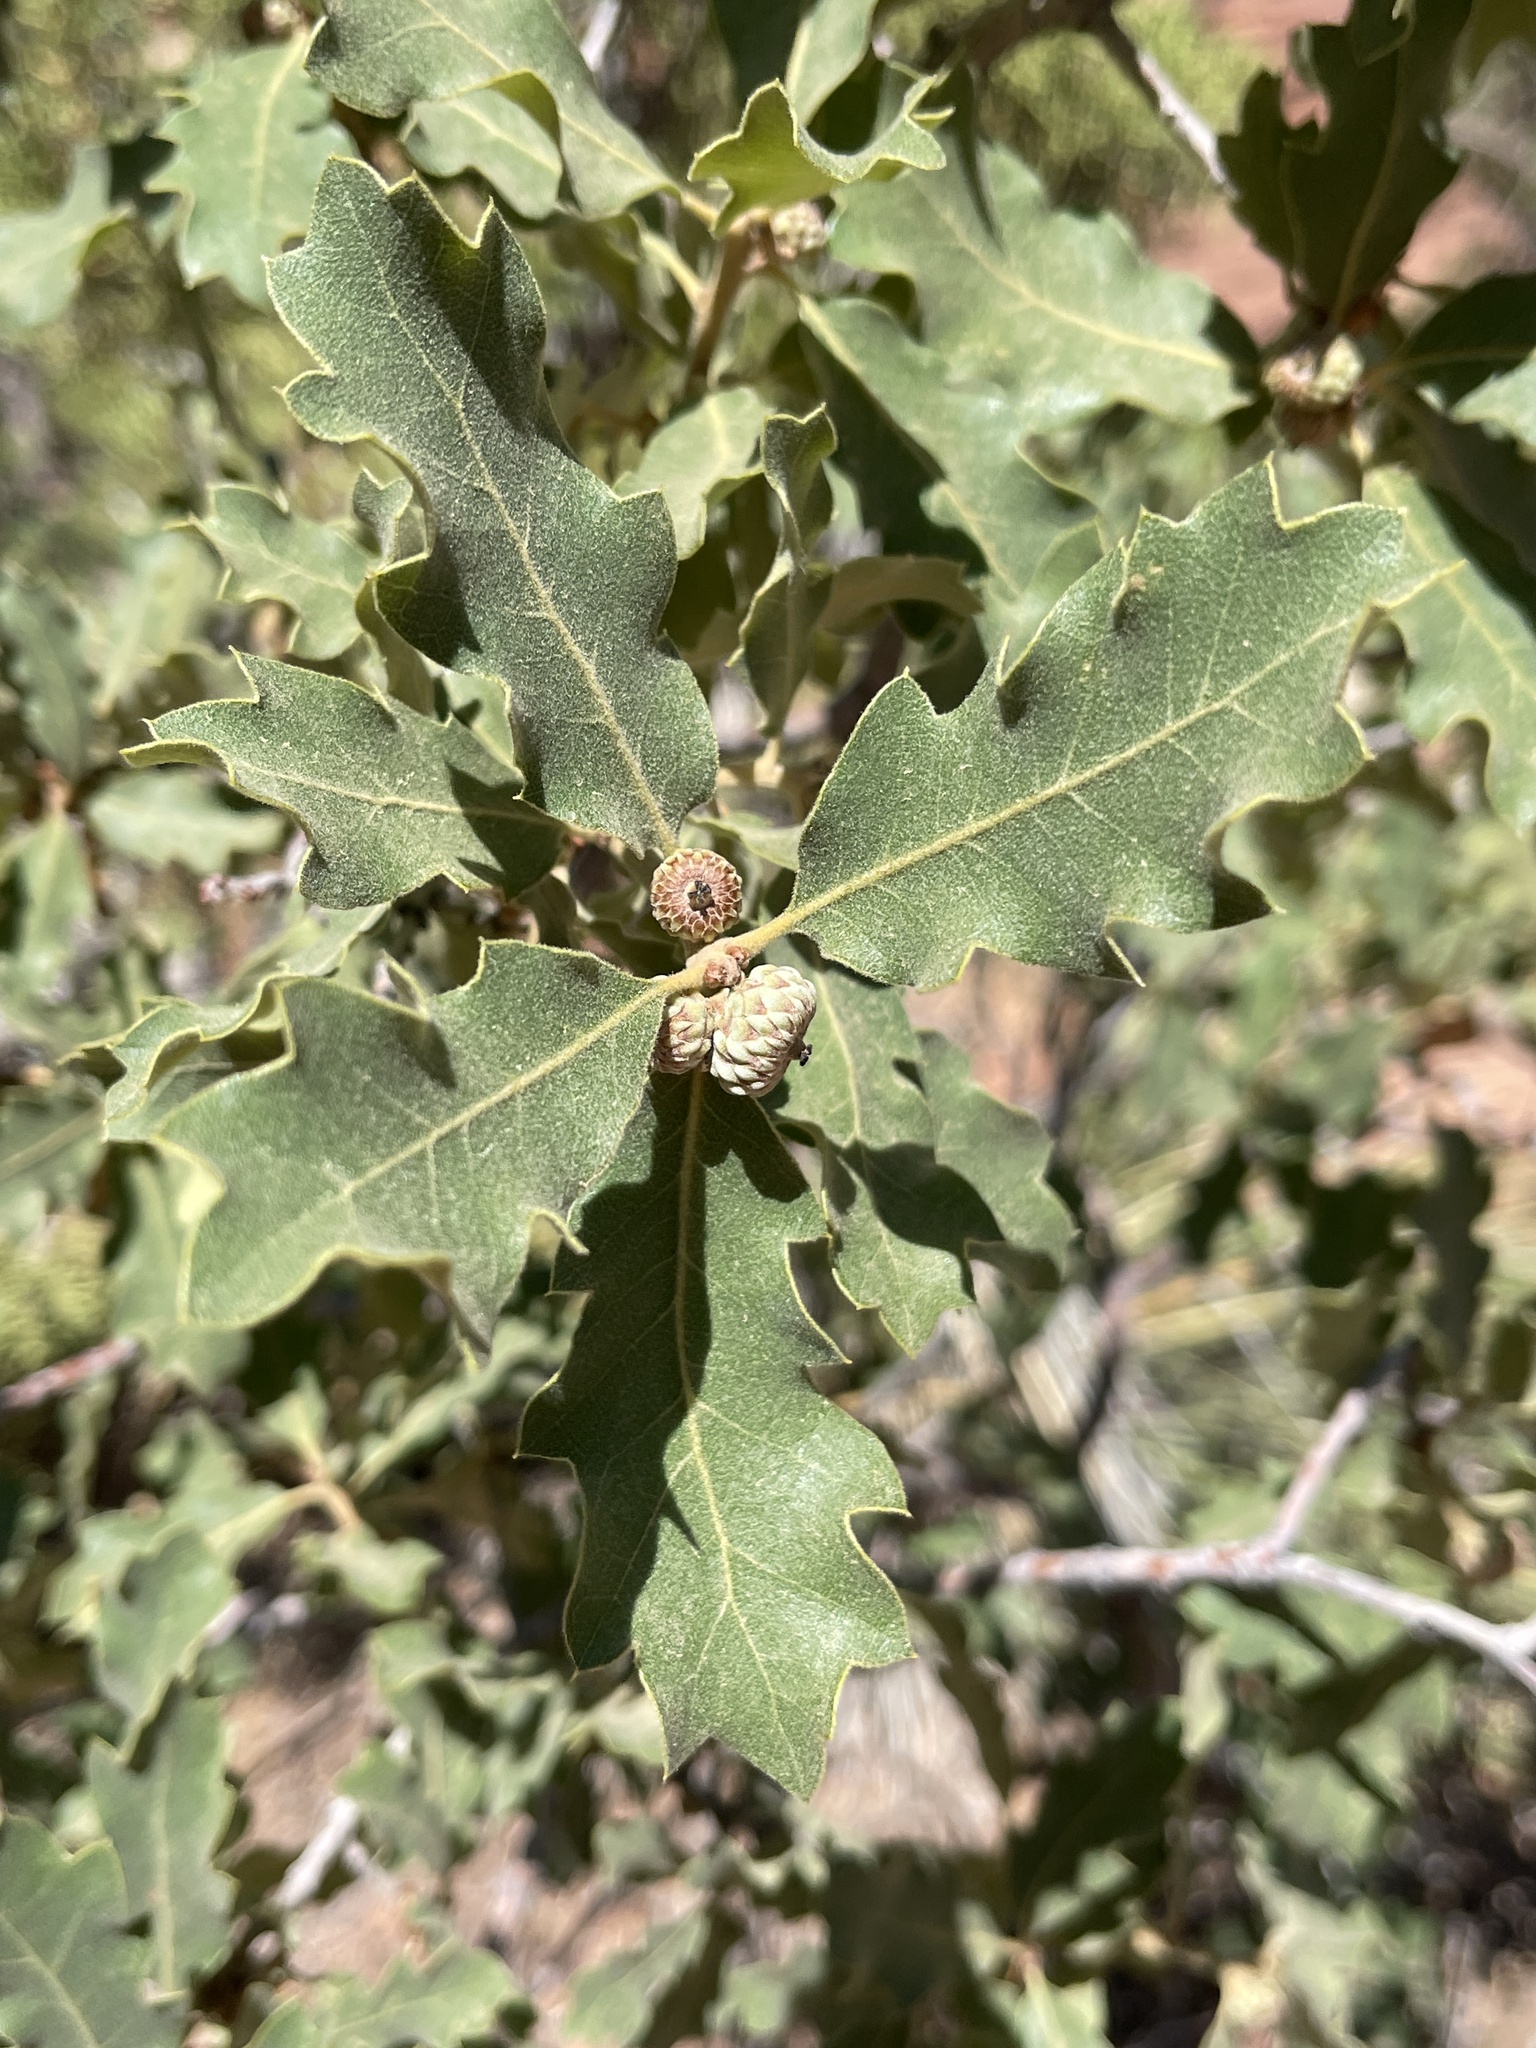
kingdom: Plantae
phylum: Tracheophyta
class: Magnoliopsida
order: Fagales
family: Fagaceae
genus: Quercus
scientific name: Quercus welshii
